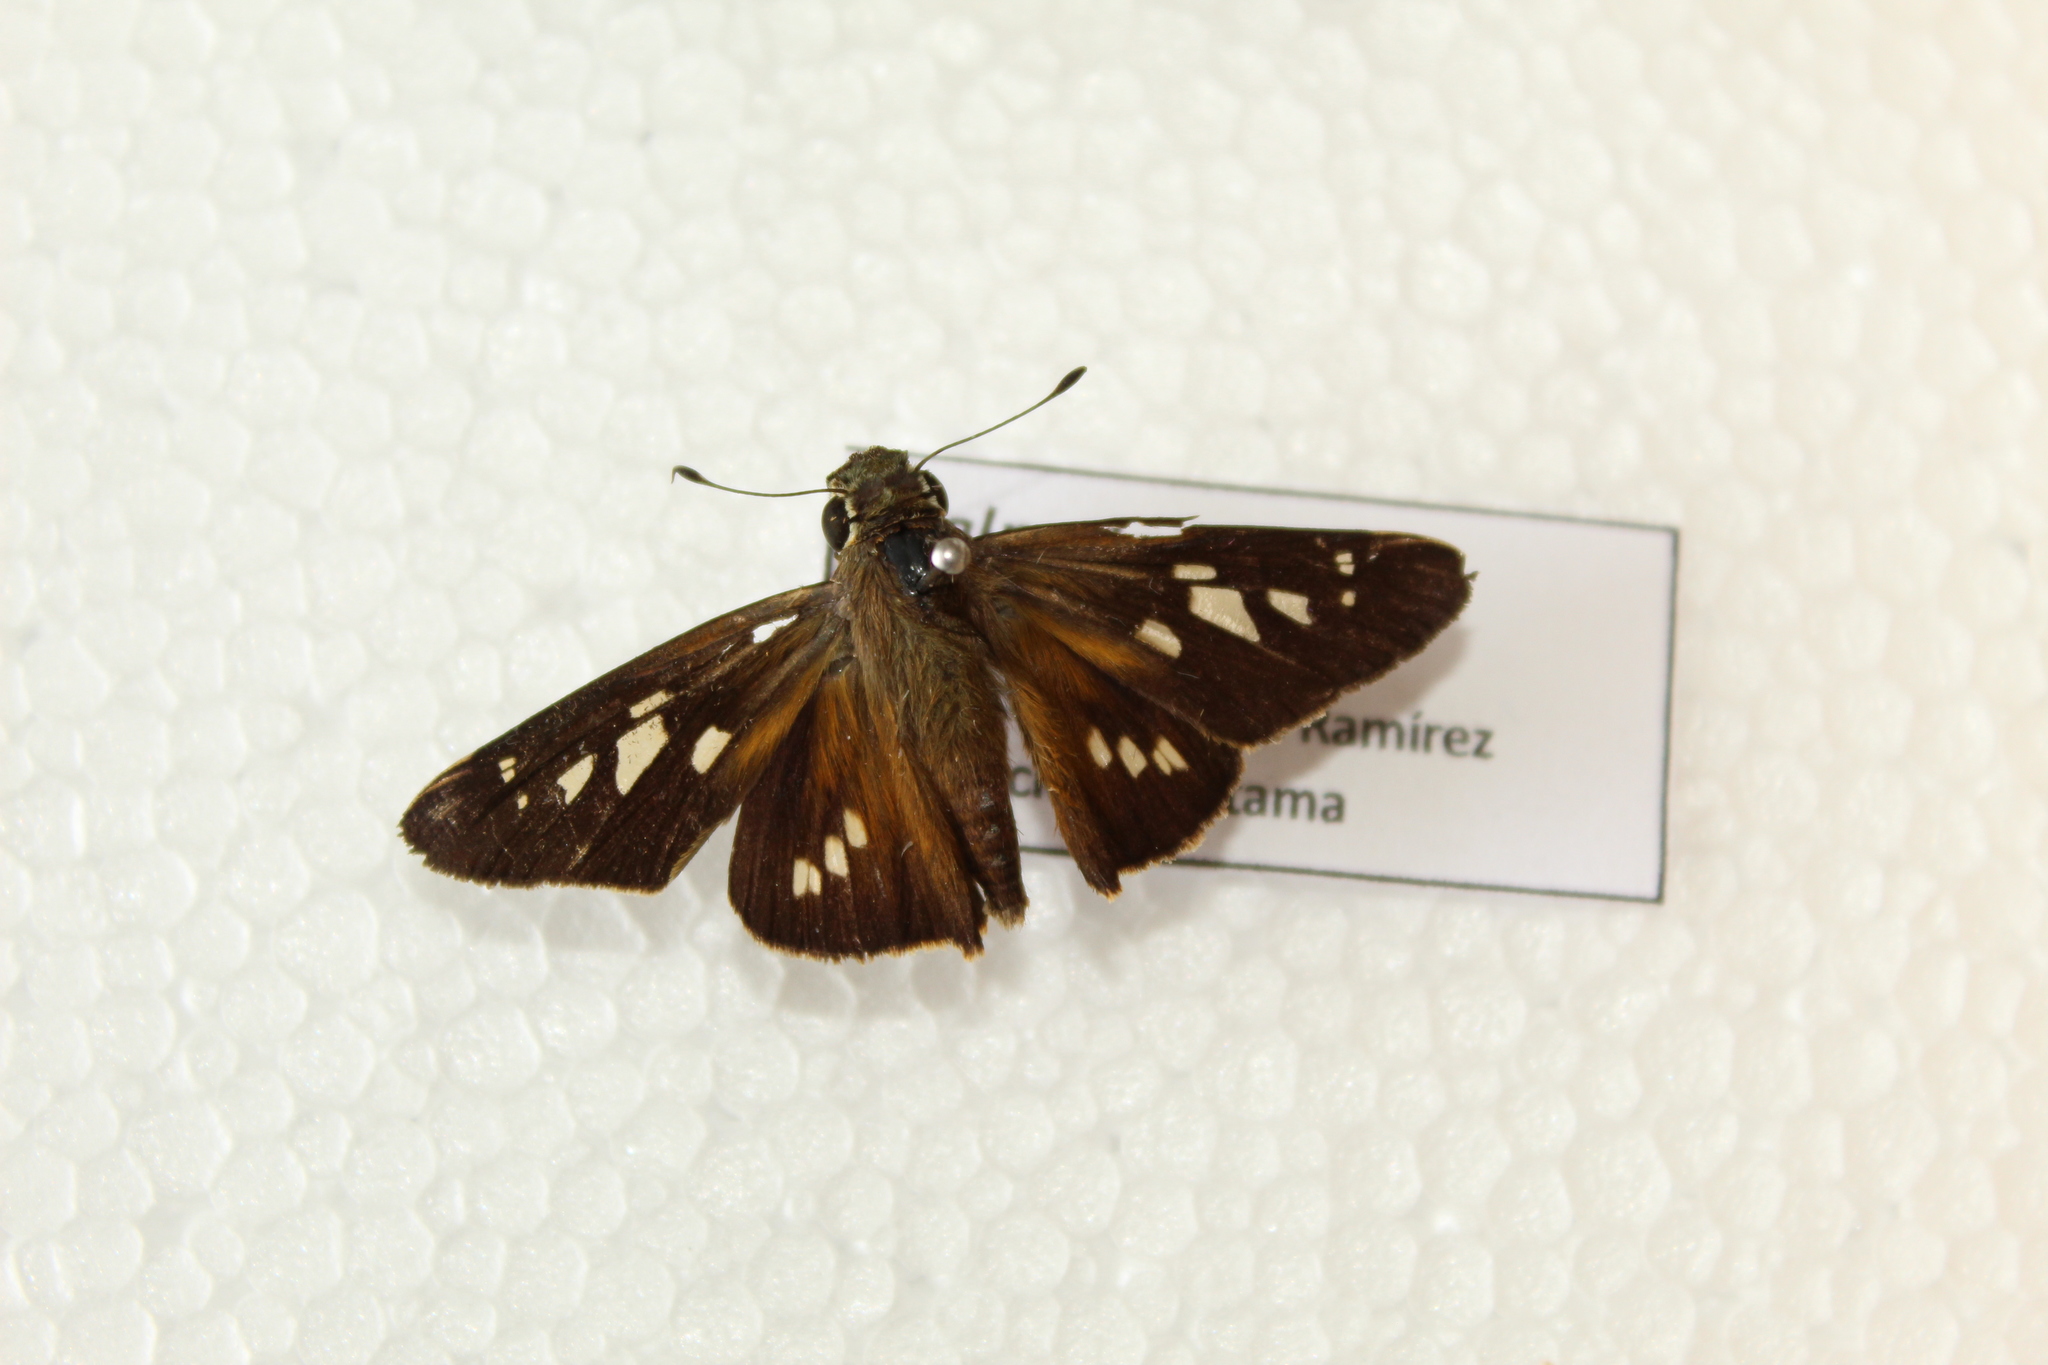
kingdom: Animalia
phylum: Arthropoda
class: Insecta
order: Lepidoptera
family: Hesperiidae
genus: Calpodes
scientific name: Calpodes ethlius
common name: Brazilian skipper
